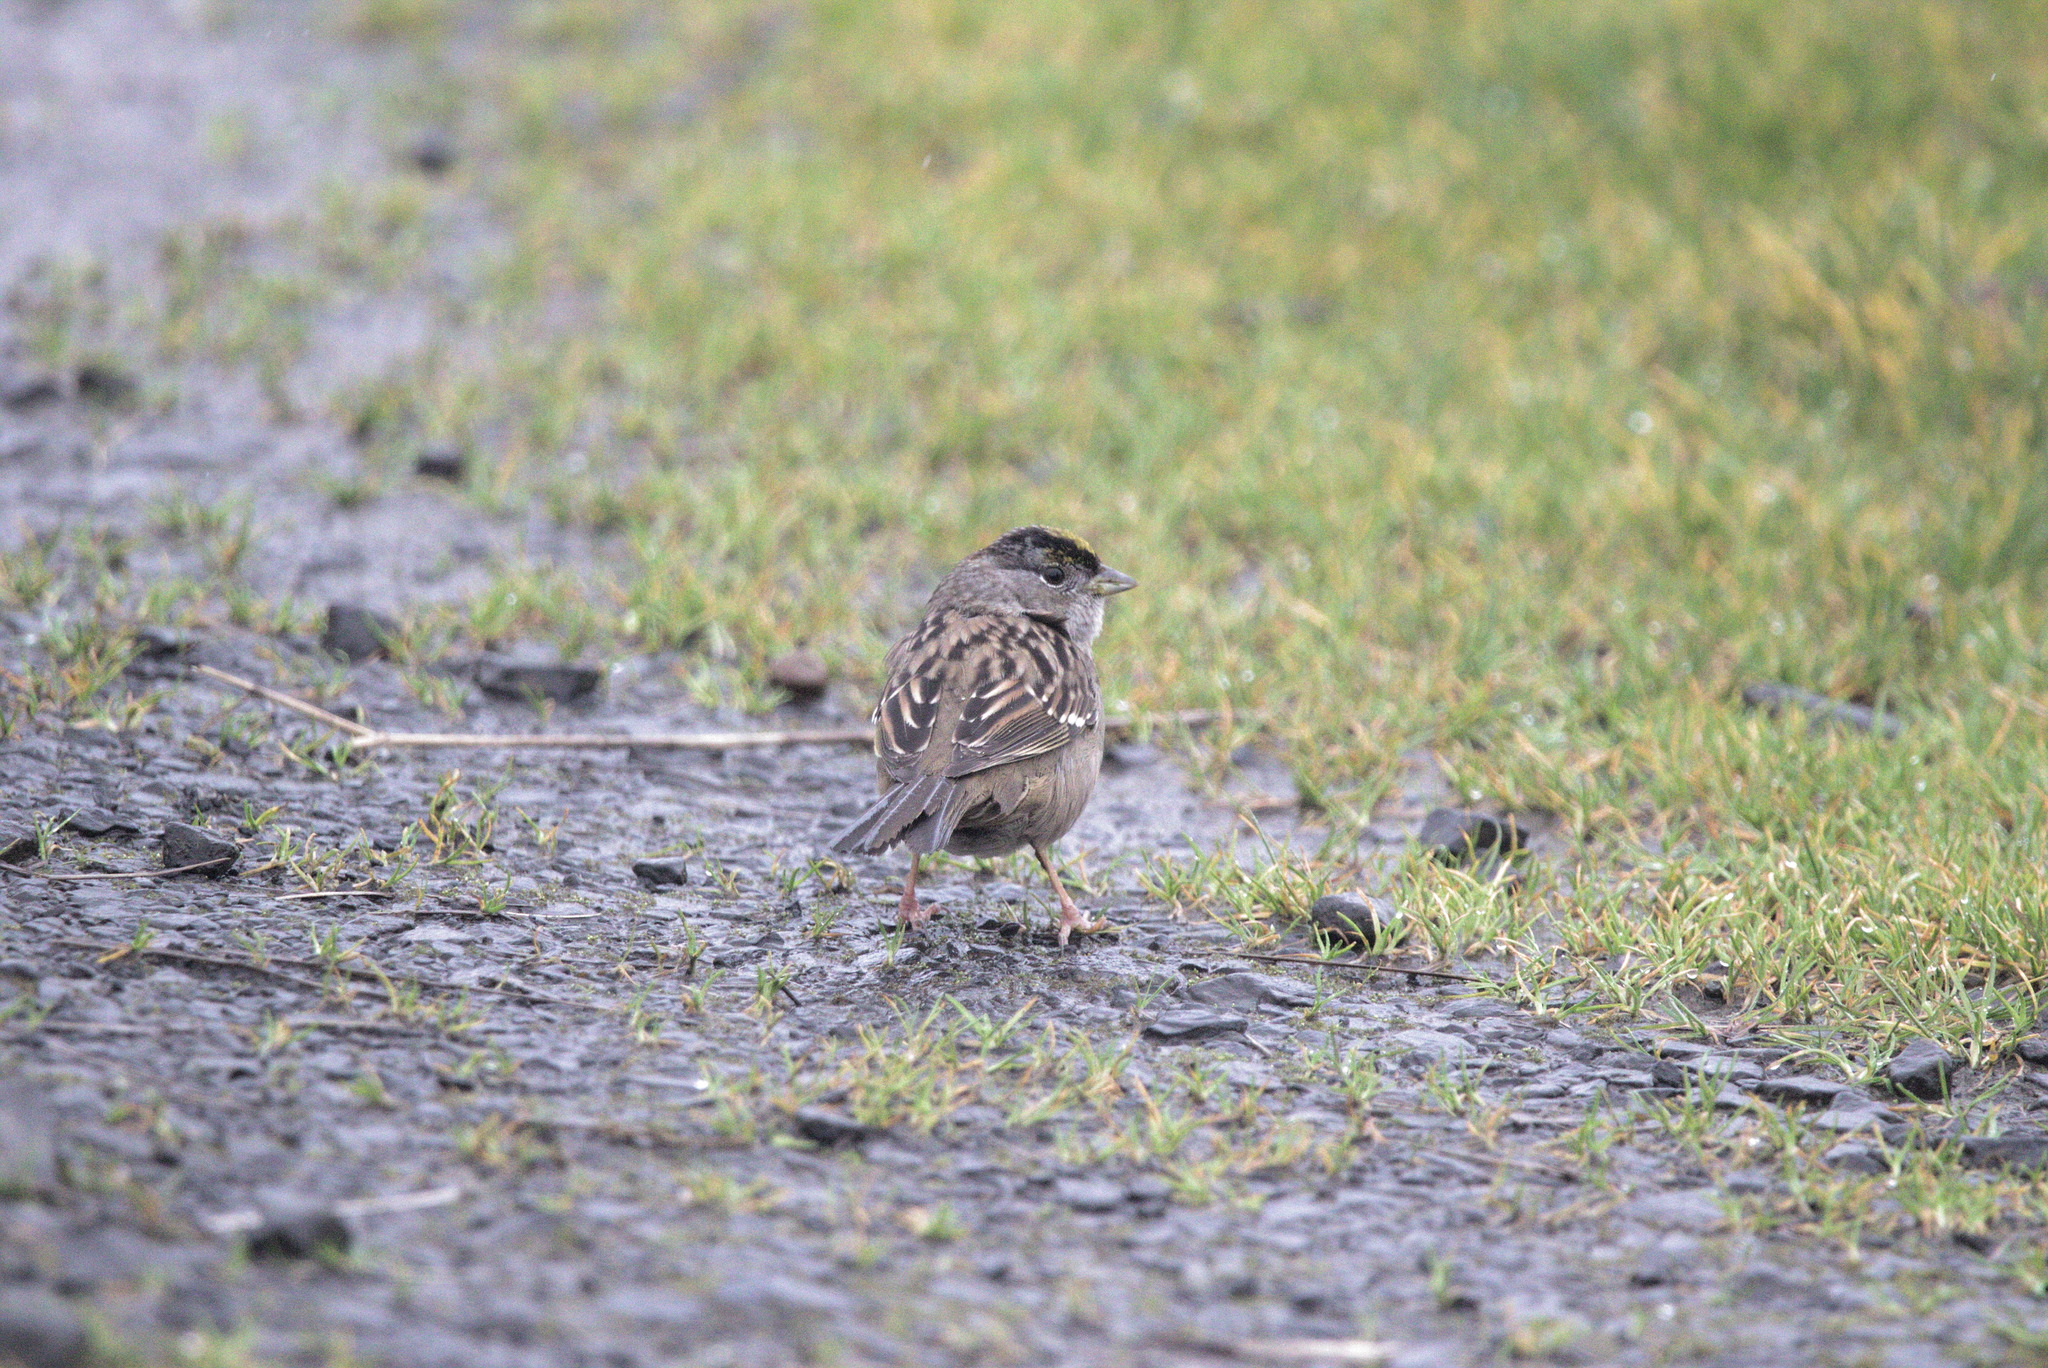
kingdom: Animalia
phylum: Chordata
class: Aves
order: Passeriformes
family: Passerellidae
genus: Zonotrichia
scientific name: Zonotrichia atricapilla
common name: Golden-crowned sparrow
